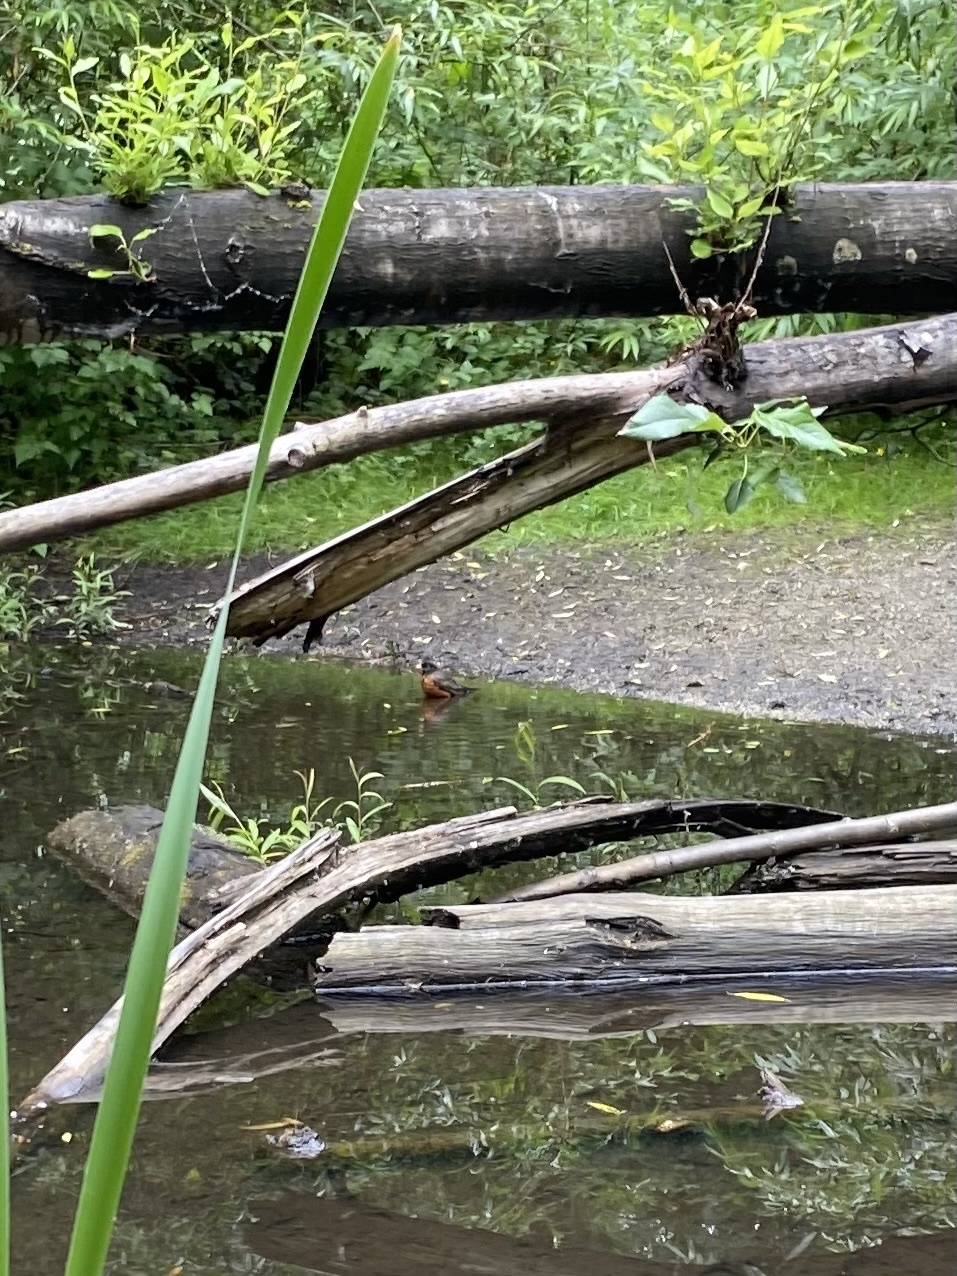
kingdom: Animalia
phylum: Chordata
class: Aves
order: Passeriformes
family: Turdidae
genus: Turdus
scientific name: Turdus migratorius
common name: American robin
